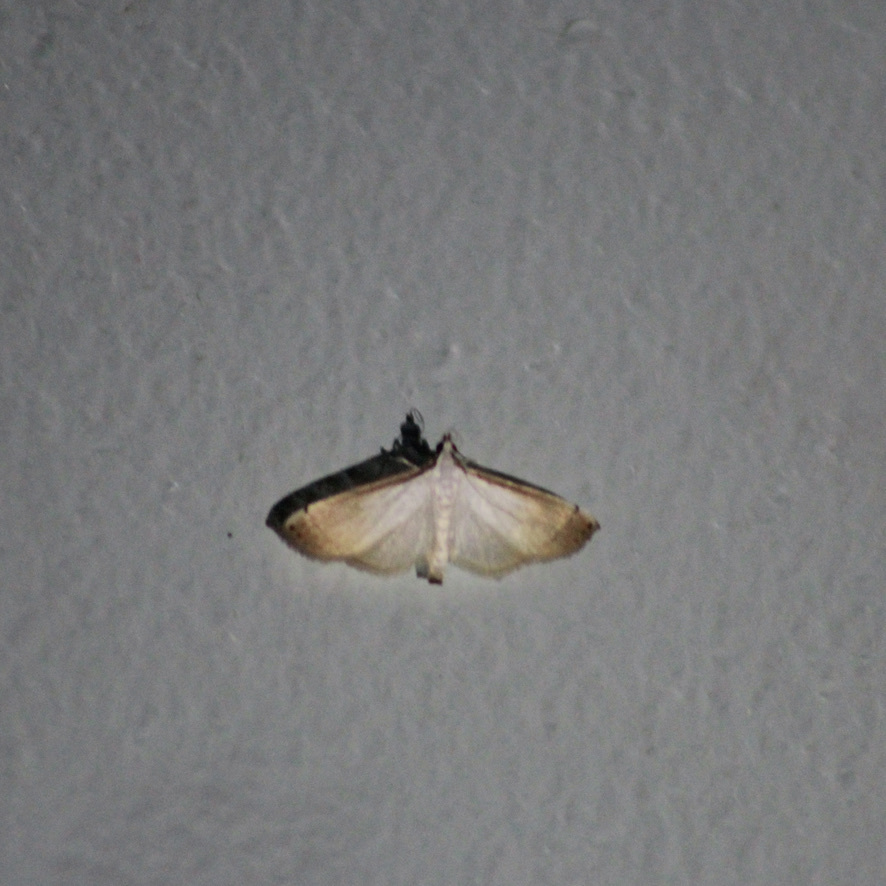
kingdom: Animalia
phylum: Arthropoda
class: Insecta
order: Lepidoptera
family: Crambidae
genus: Stenia
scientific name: Stenia saurialis
